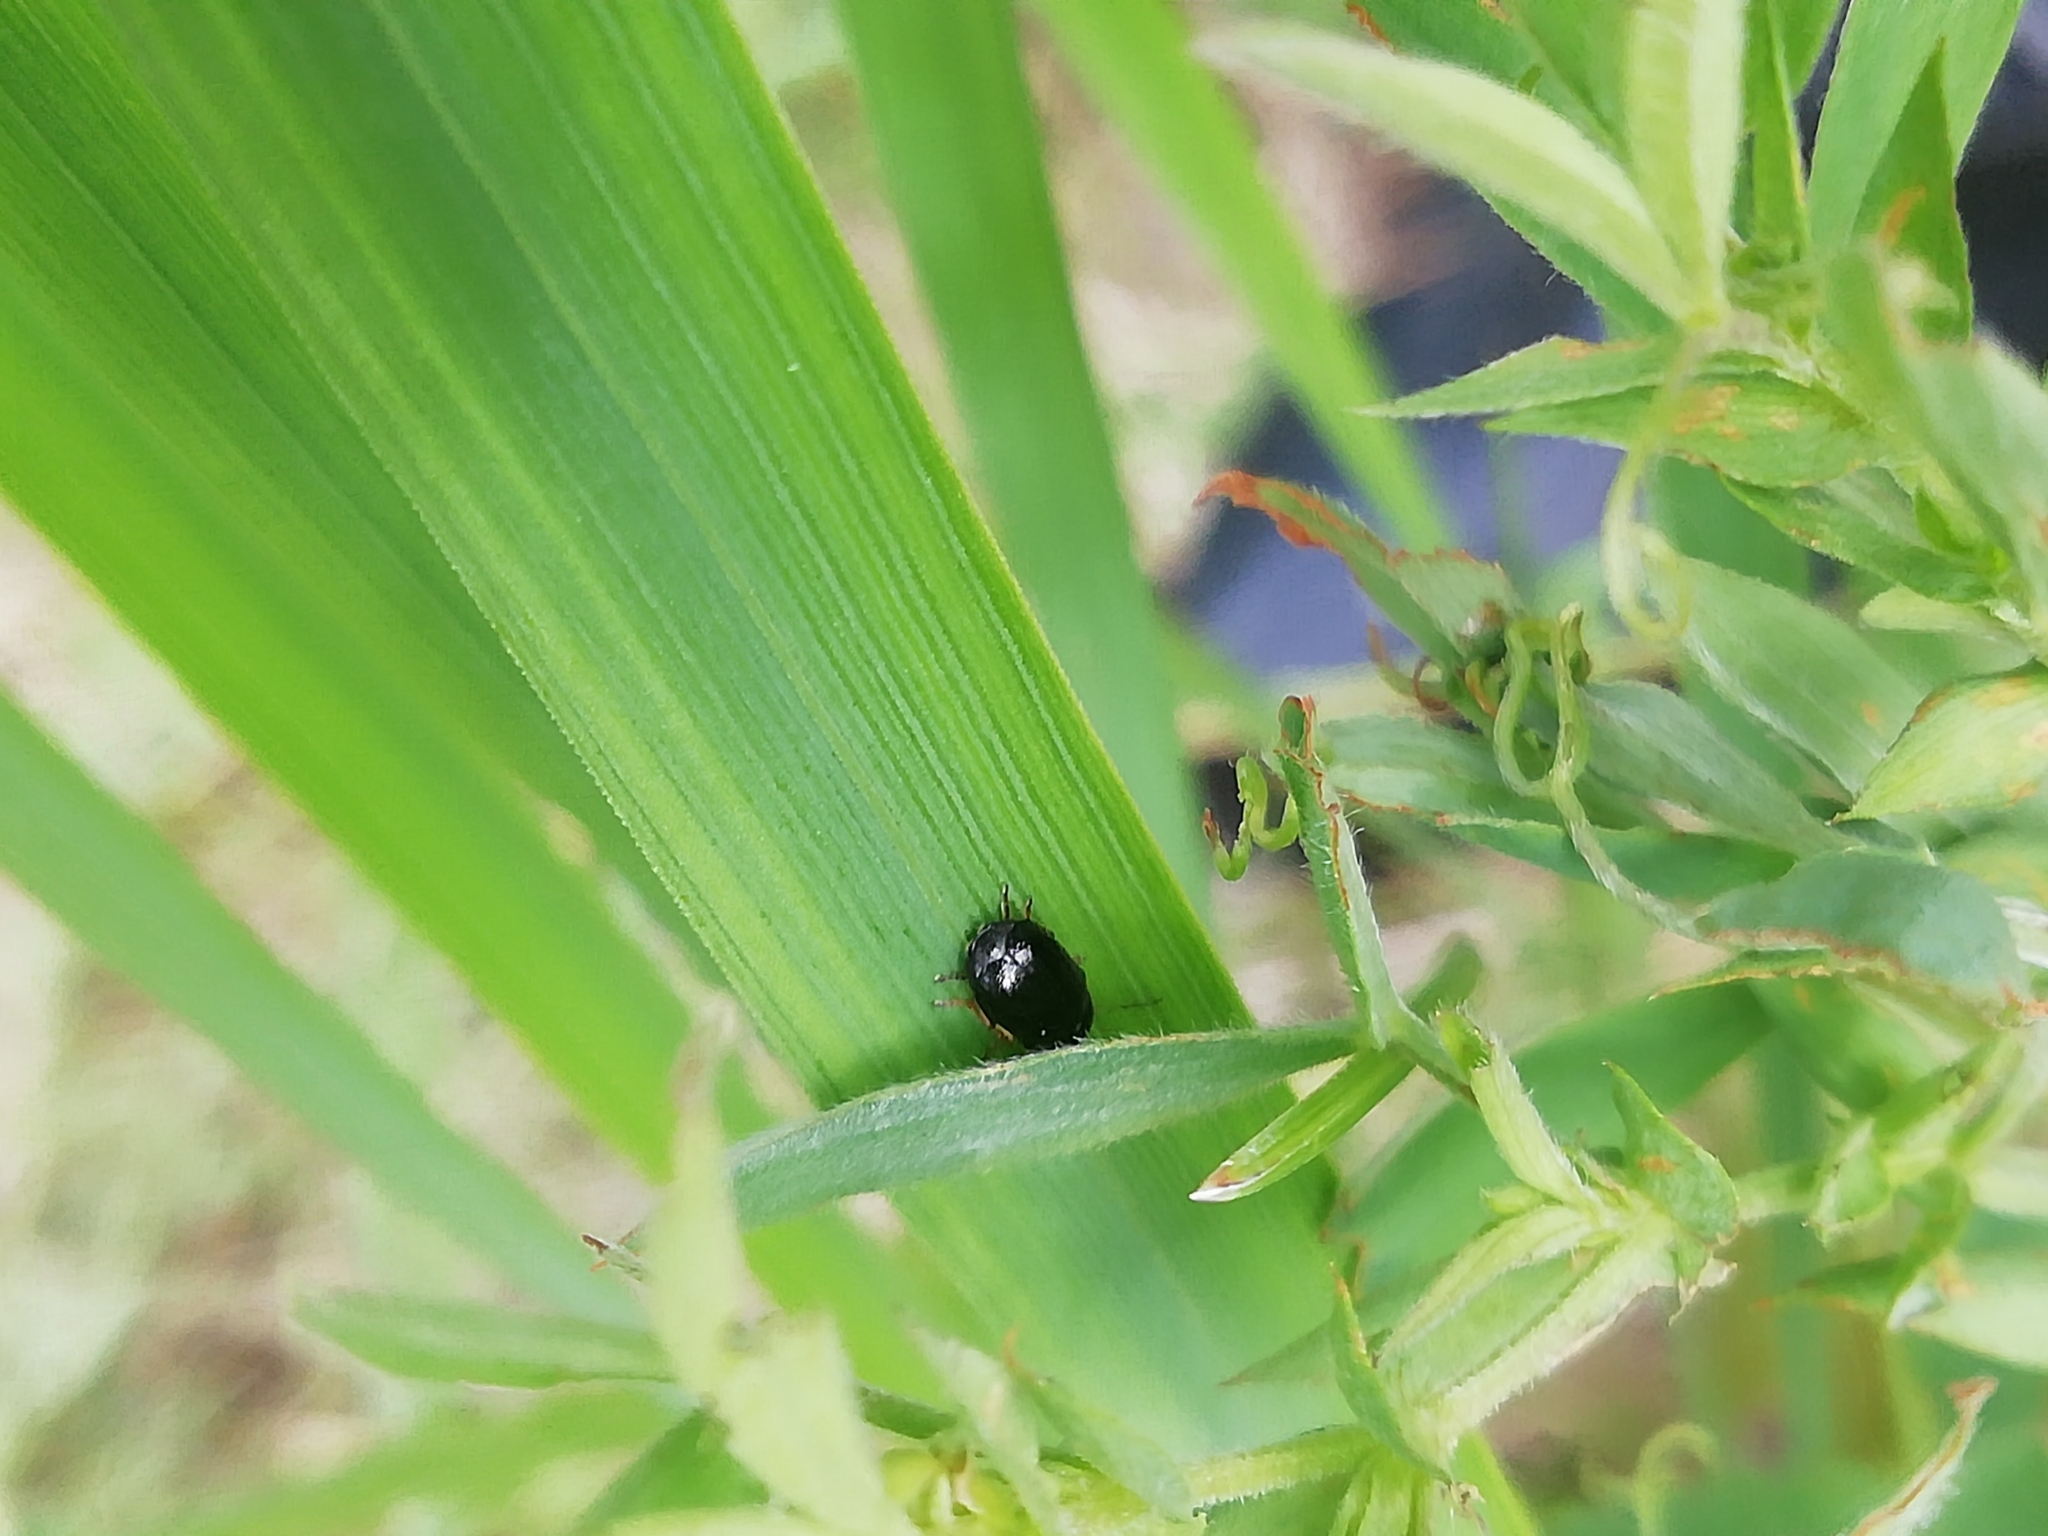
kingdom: Animalia
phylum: Arthropoda
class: Insecta
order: Coleoptera
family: Chrysomelidae
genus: Cryptocephalus
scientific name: Cryptocephalus bameuli
